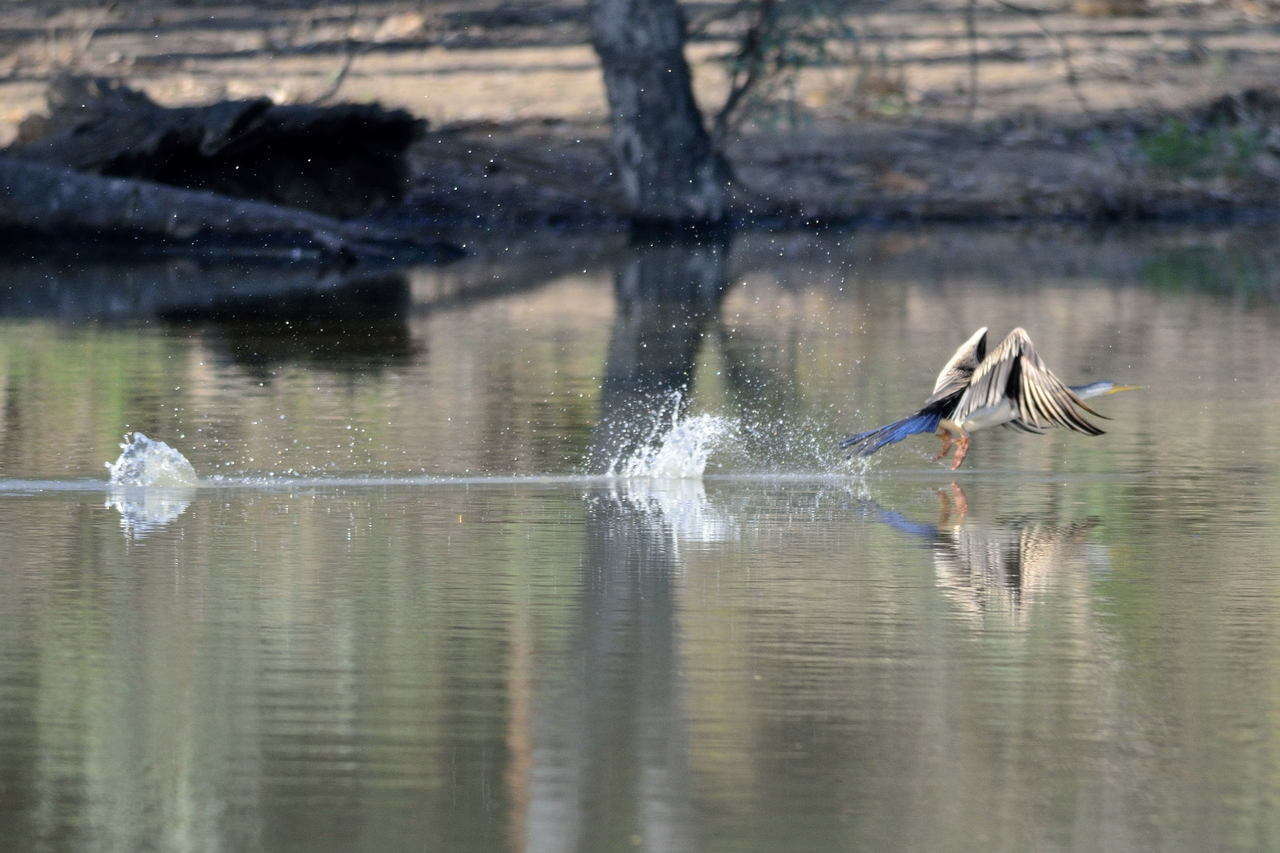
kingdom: Animalia
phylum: Chordata
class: Aves
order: Suliformes
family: Anhingidae
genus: Anhinga
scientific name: Anhinga novaehollandiae
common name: Australasian darter
